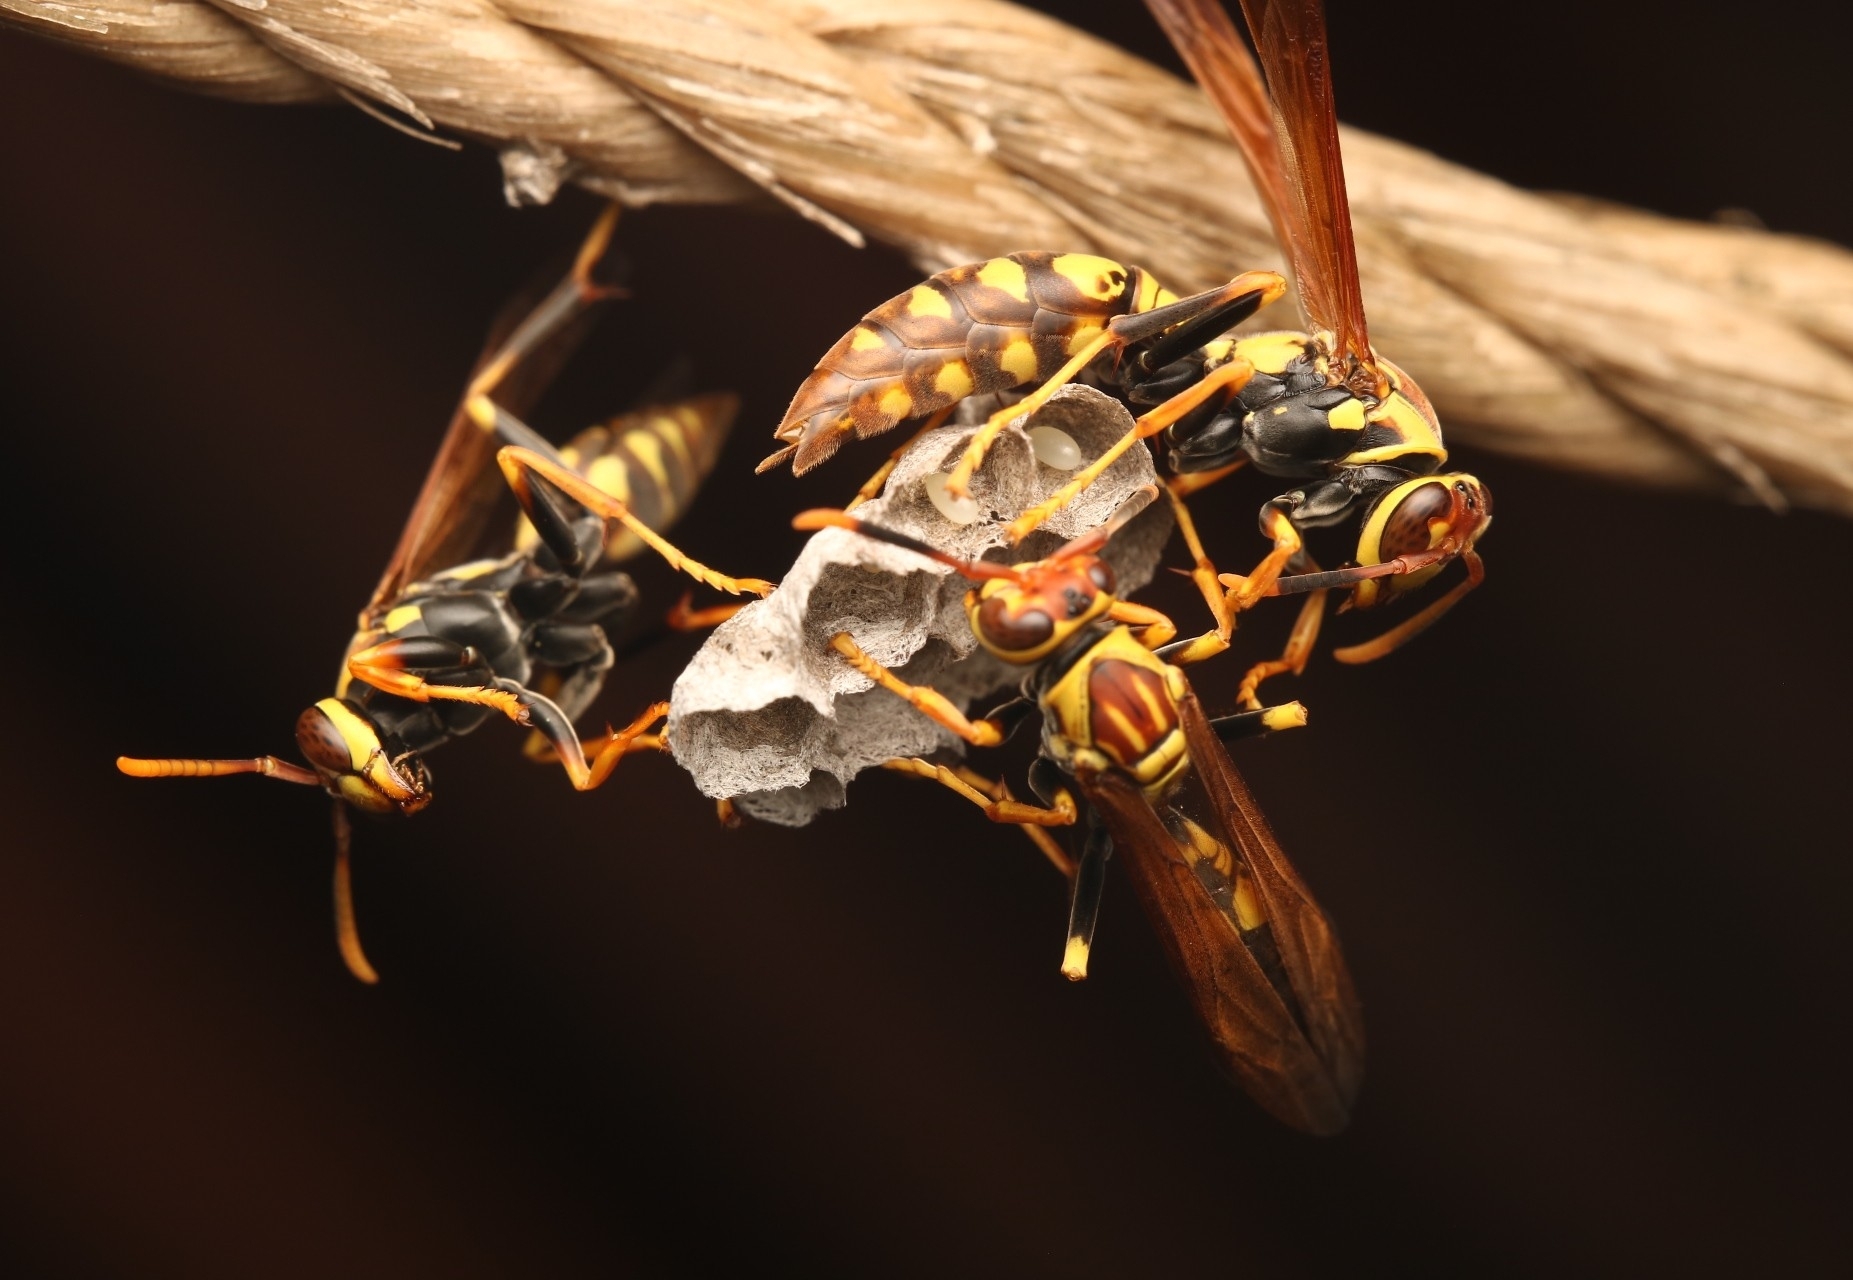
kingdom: Animalia
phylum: Arthropoda
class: Insecta
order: Hymenoptera
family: Eumenidae
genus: Polistes
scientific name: Polistes myersi
